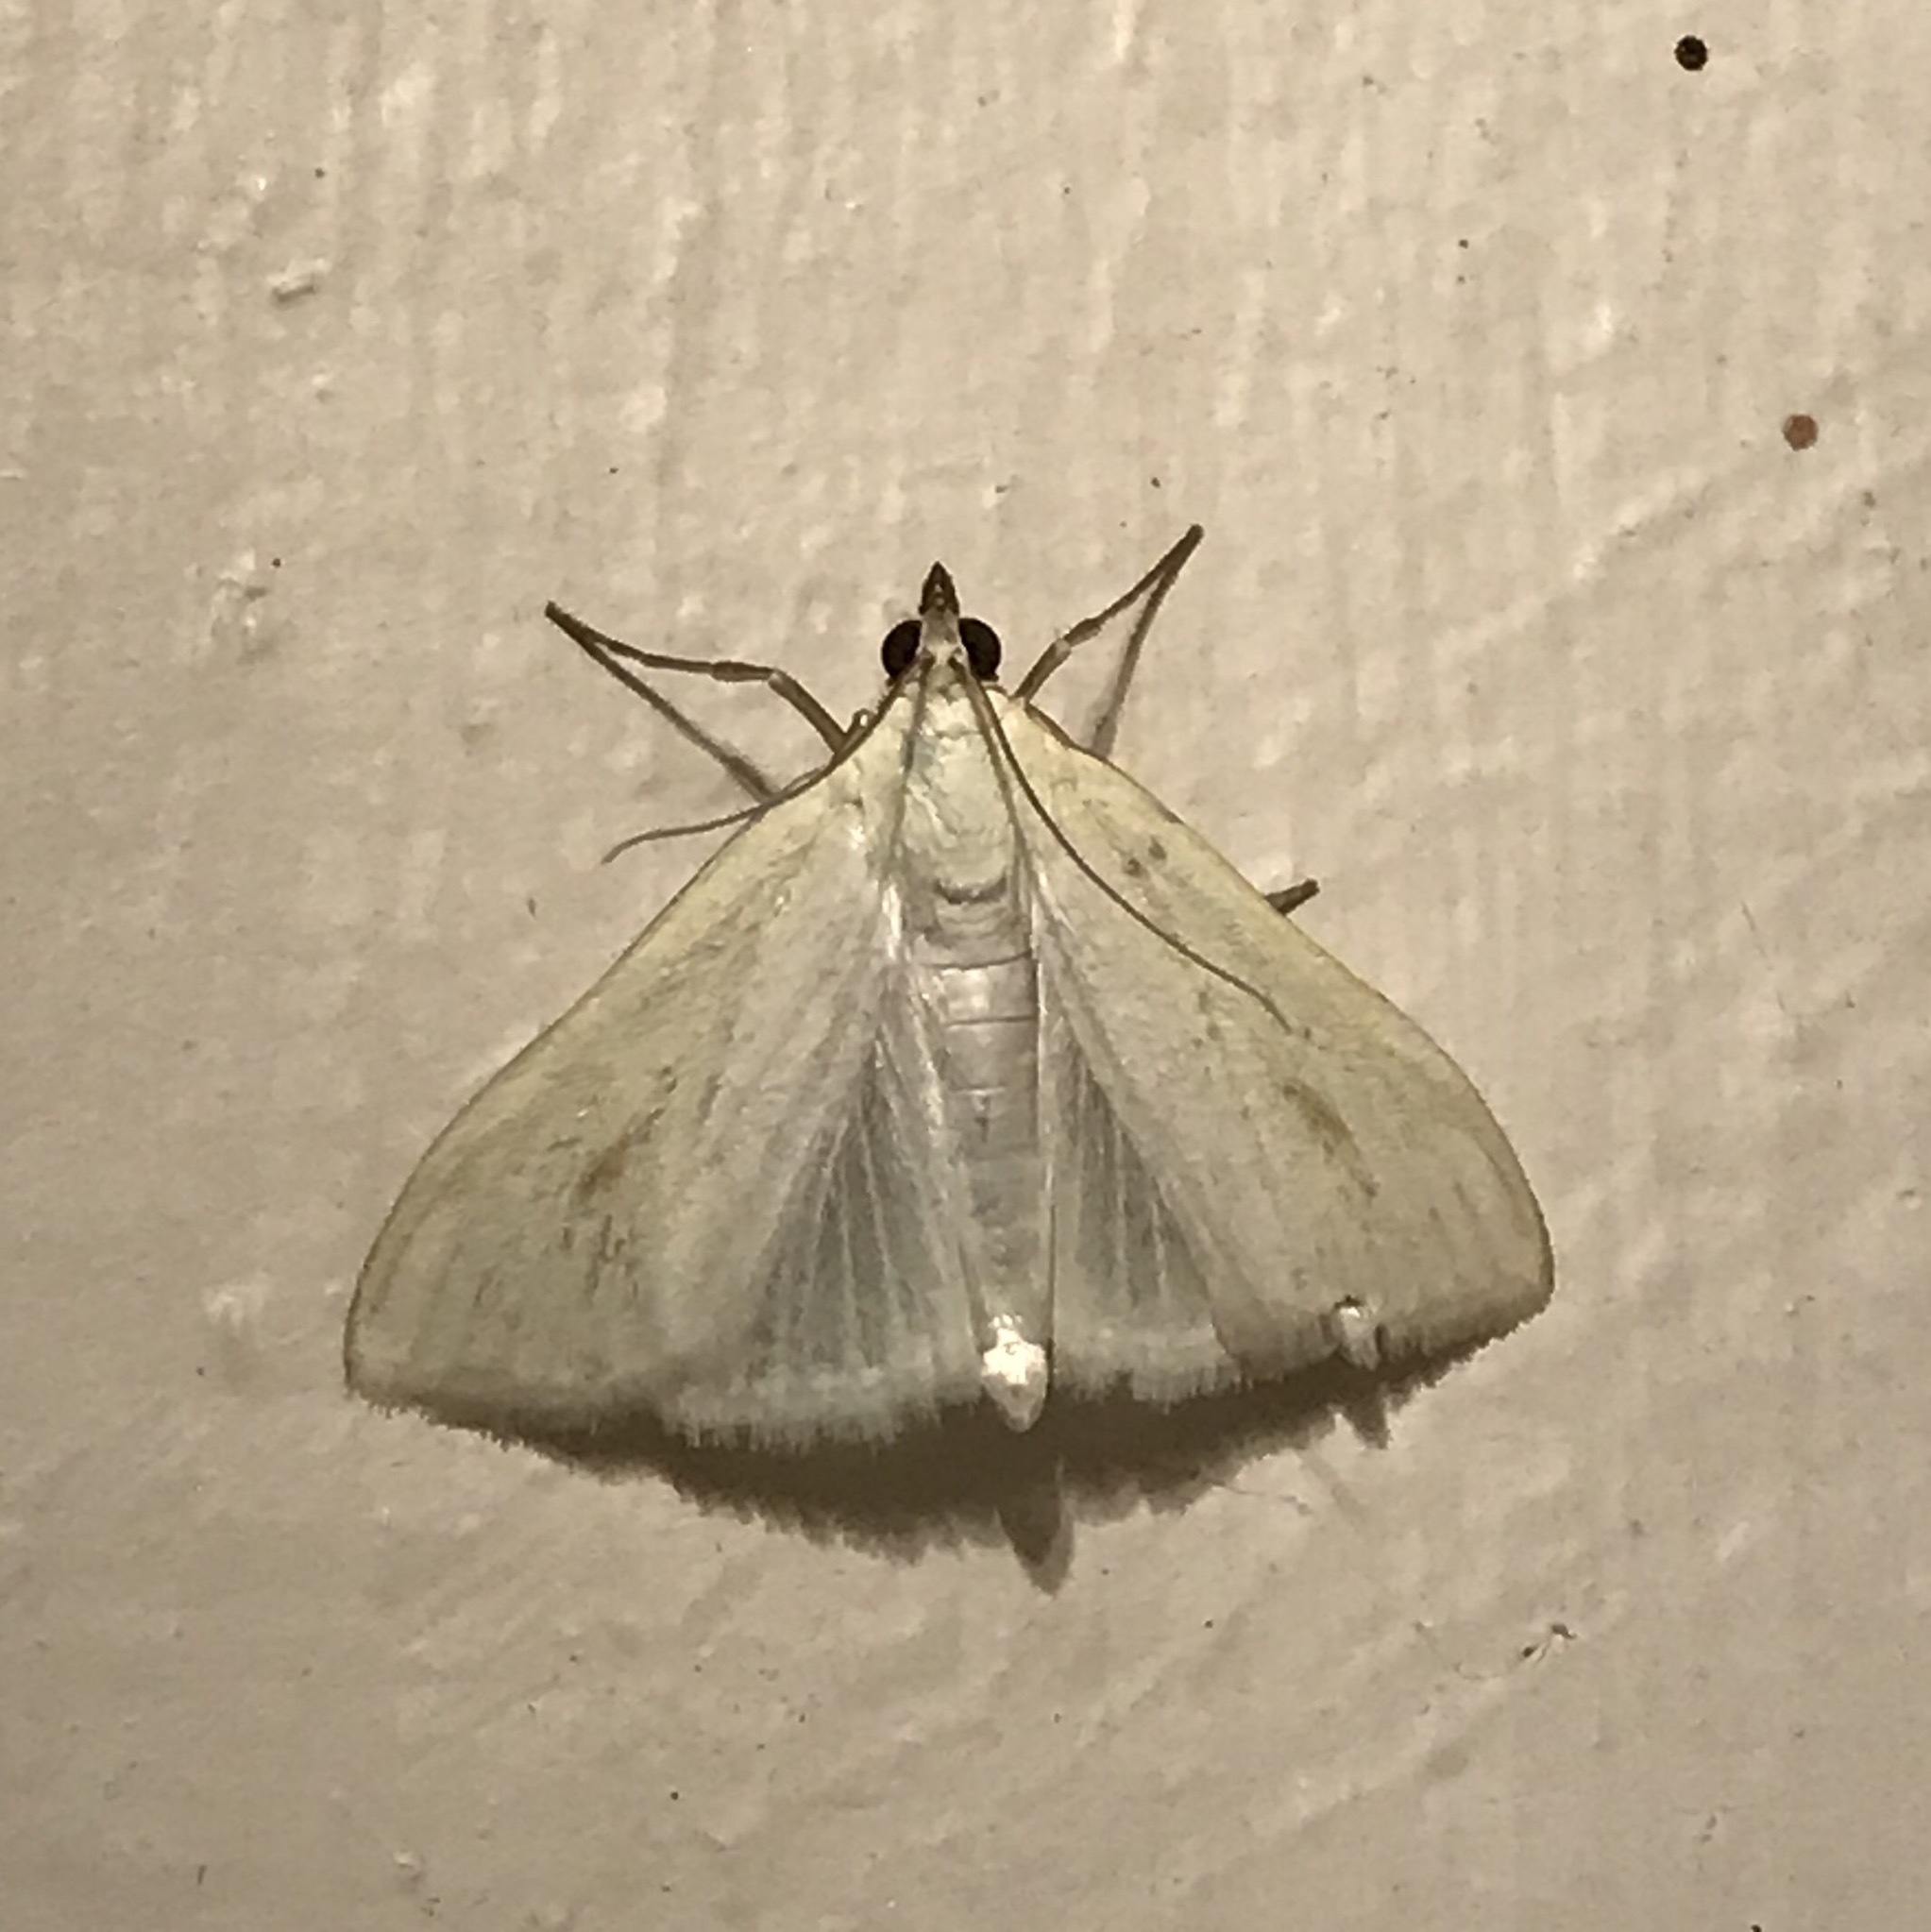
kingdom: Animalia
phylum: Arthropoda
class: Insecta
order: Lepidoptera
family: Crambidae
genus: Sitochroa
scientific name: Sitochroa palealis
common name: Greenish-yellow sitochroa moth
